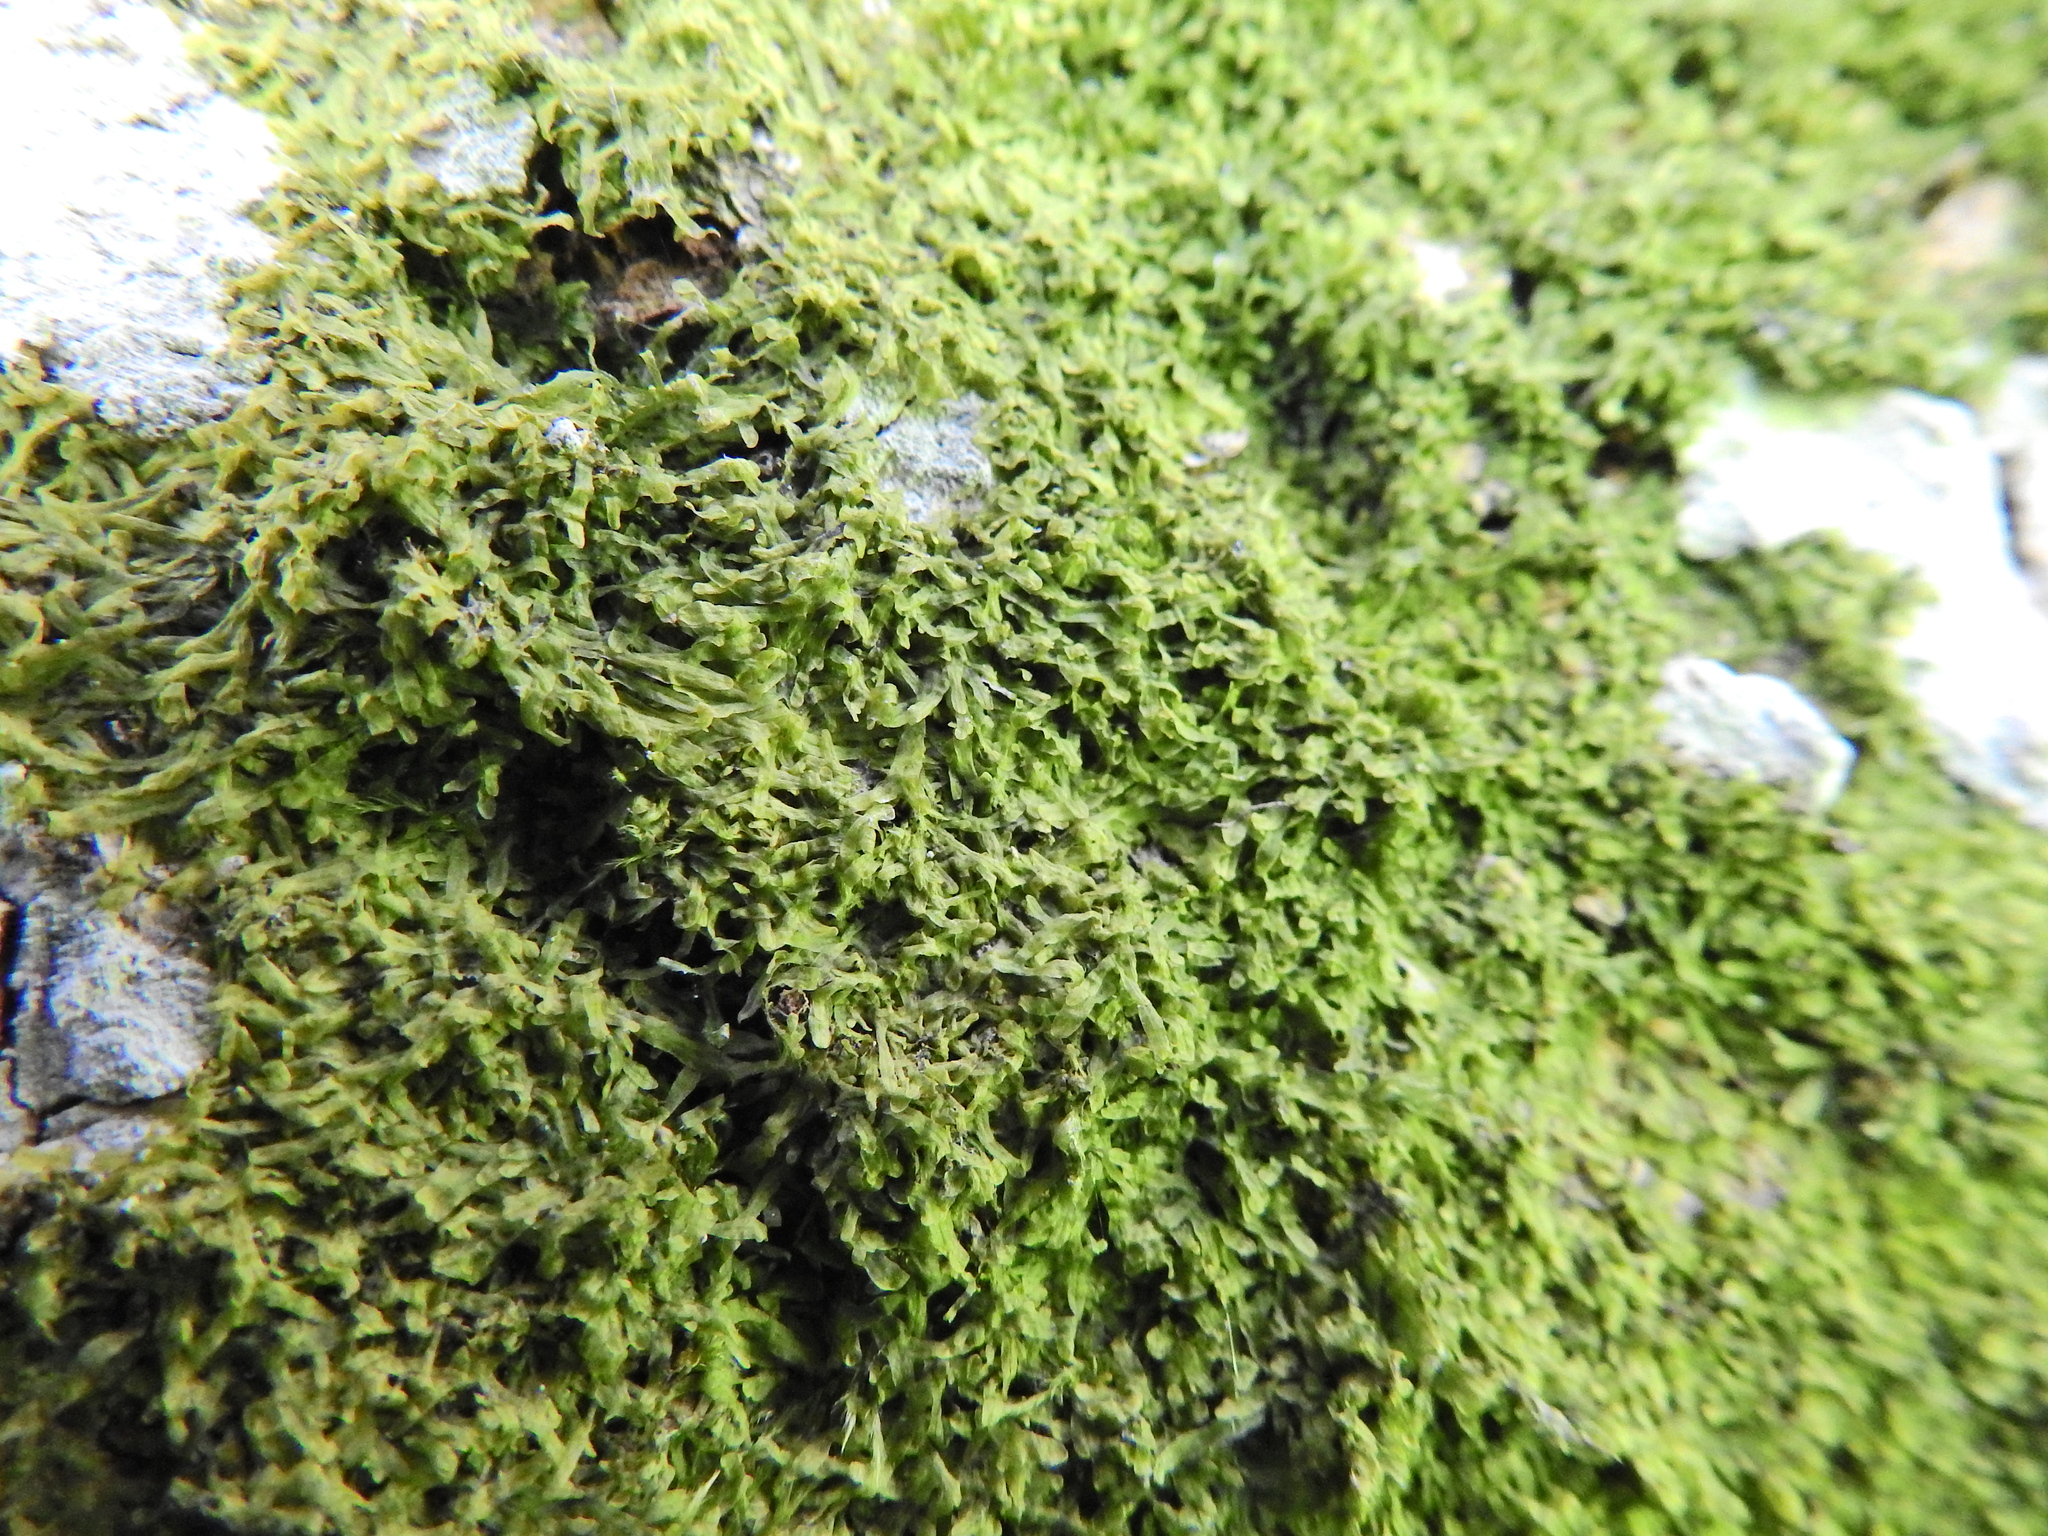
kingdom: Plantae
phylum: Marchantiophyta
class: Jungermanniopsida
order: Metzgeriales
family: Metzgeriaceae
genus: Metzgeria
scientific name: Metzgeria furcata
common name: Forked veilwort
